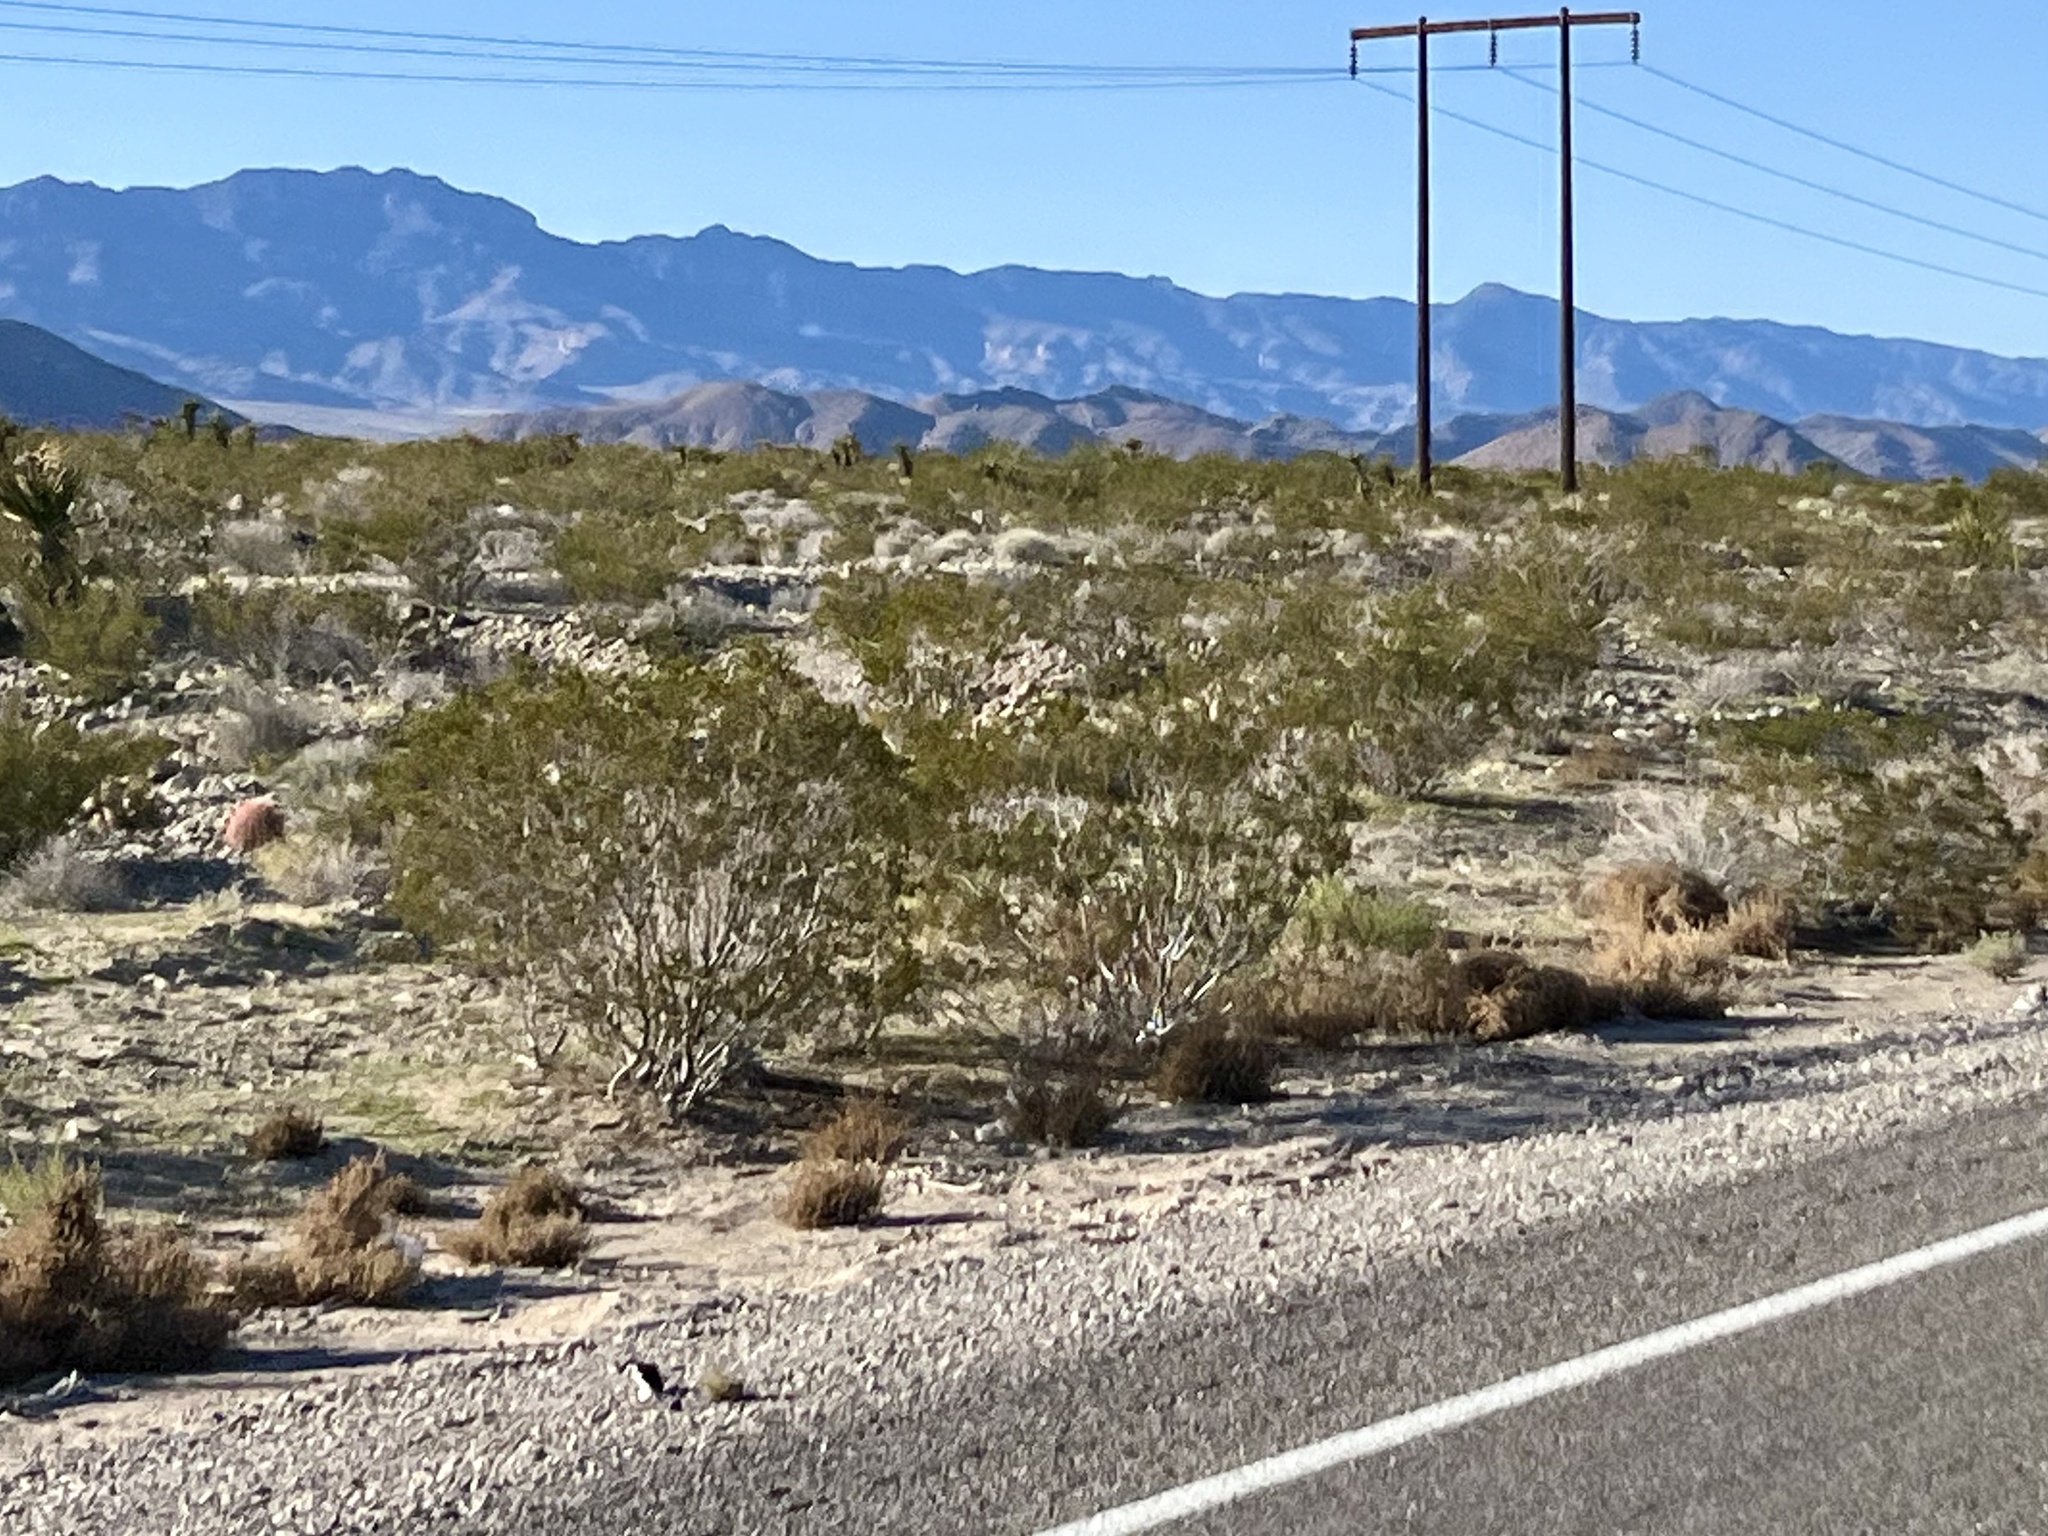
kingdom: Plantae
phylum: Tracheophyta
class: Magnoliopsida
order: Zygophyllales
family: Zygophyllaceae
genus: Larrea
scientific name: Larrea tridentata
